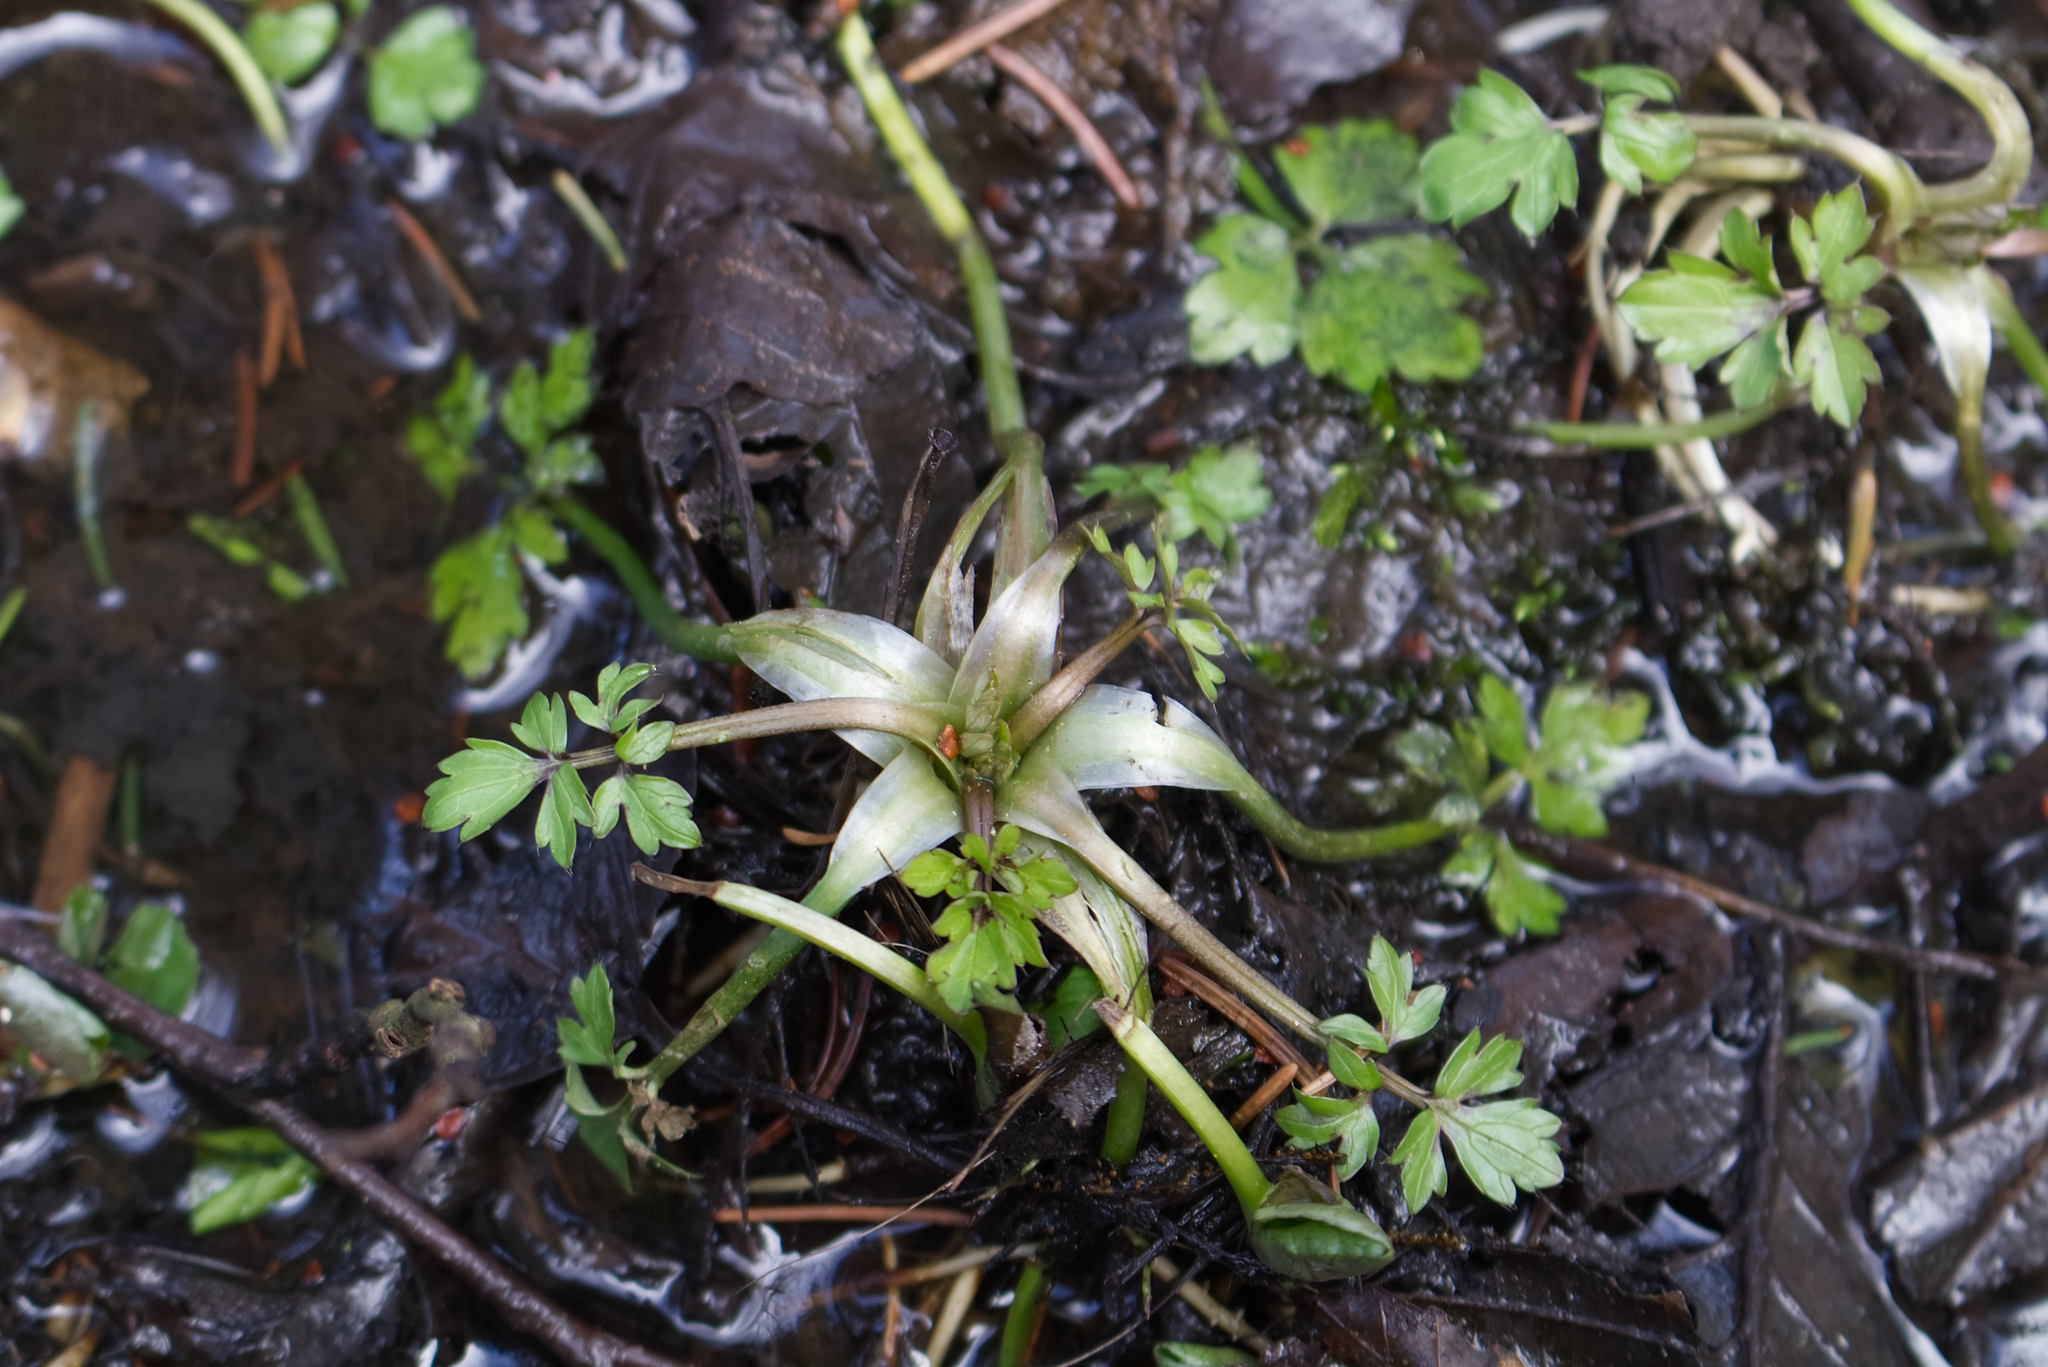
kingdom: Plantae
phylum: Tracheophyta
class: Magnoliopsida
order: Ranunculales
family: Ranunculaceae
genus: Ranunculus
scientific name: Ranunculus repens
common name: Creeping buttercup
